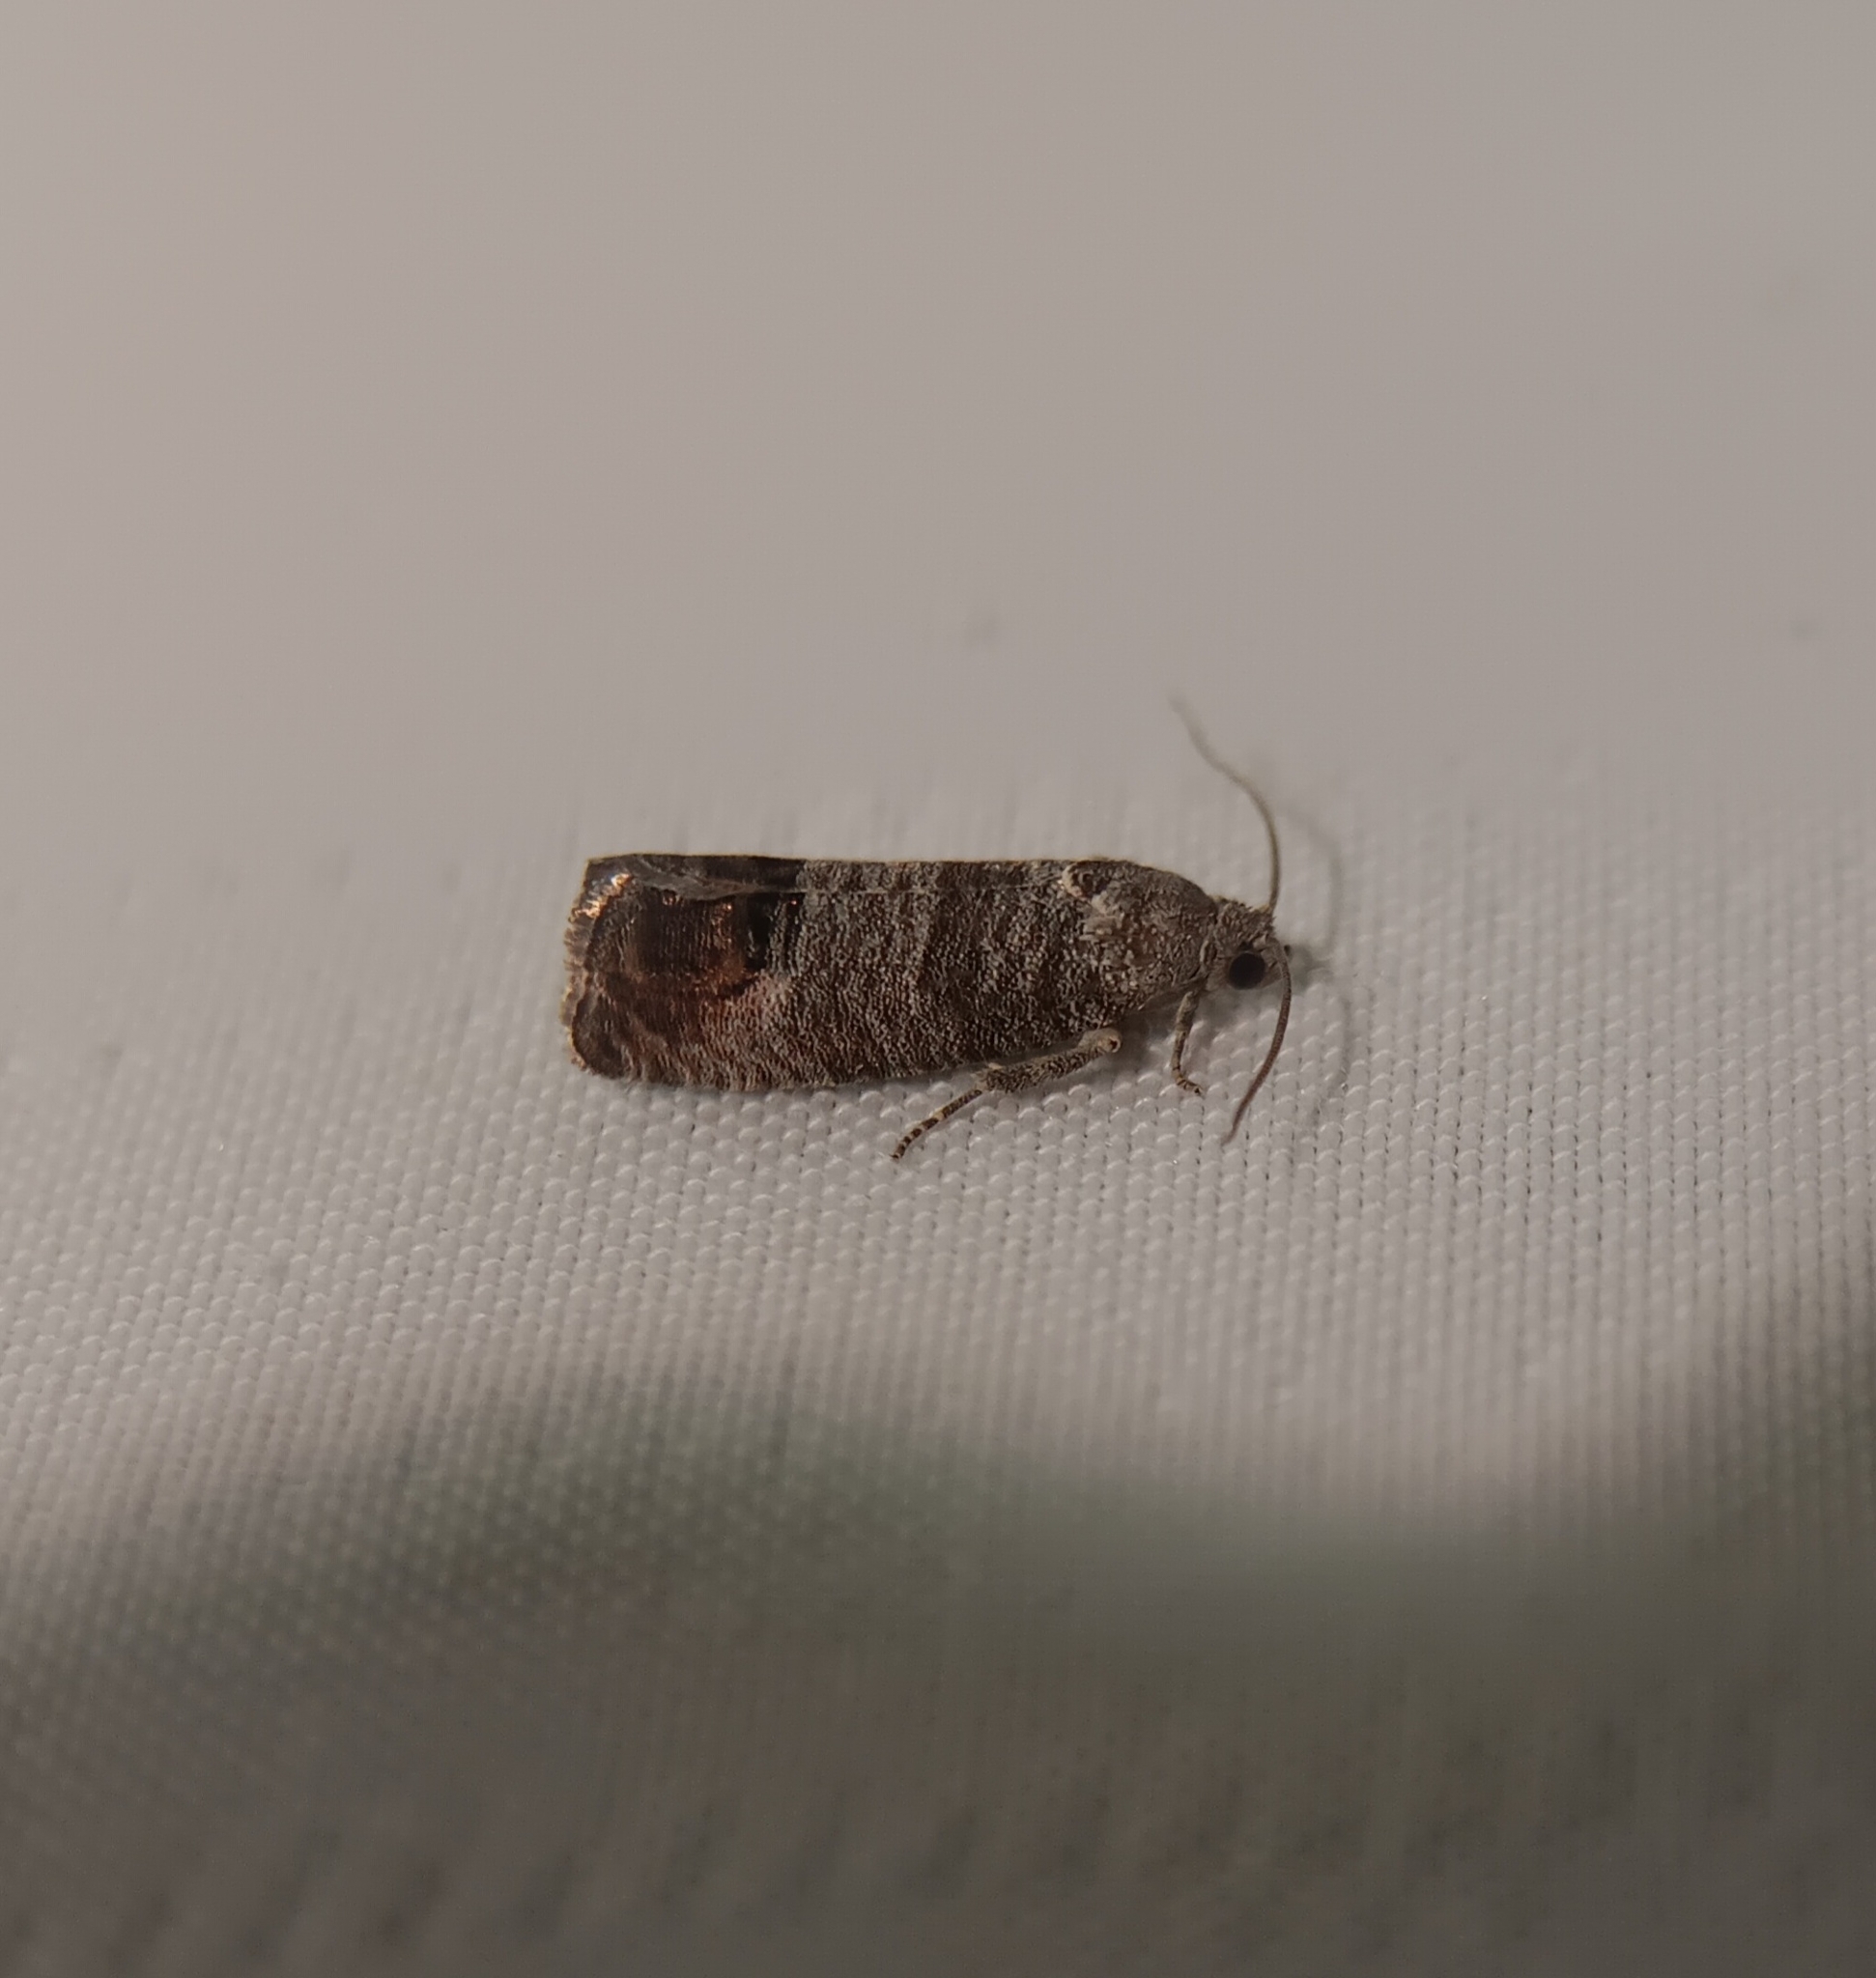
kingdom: Animalia
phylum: Arthropoda
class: Insecta
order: Lepidoptera
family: Tortricidae
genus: Cydia
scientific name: Cydia pomonella
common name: Codling moth
